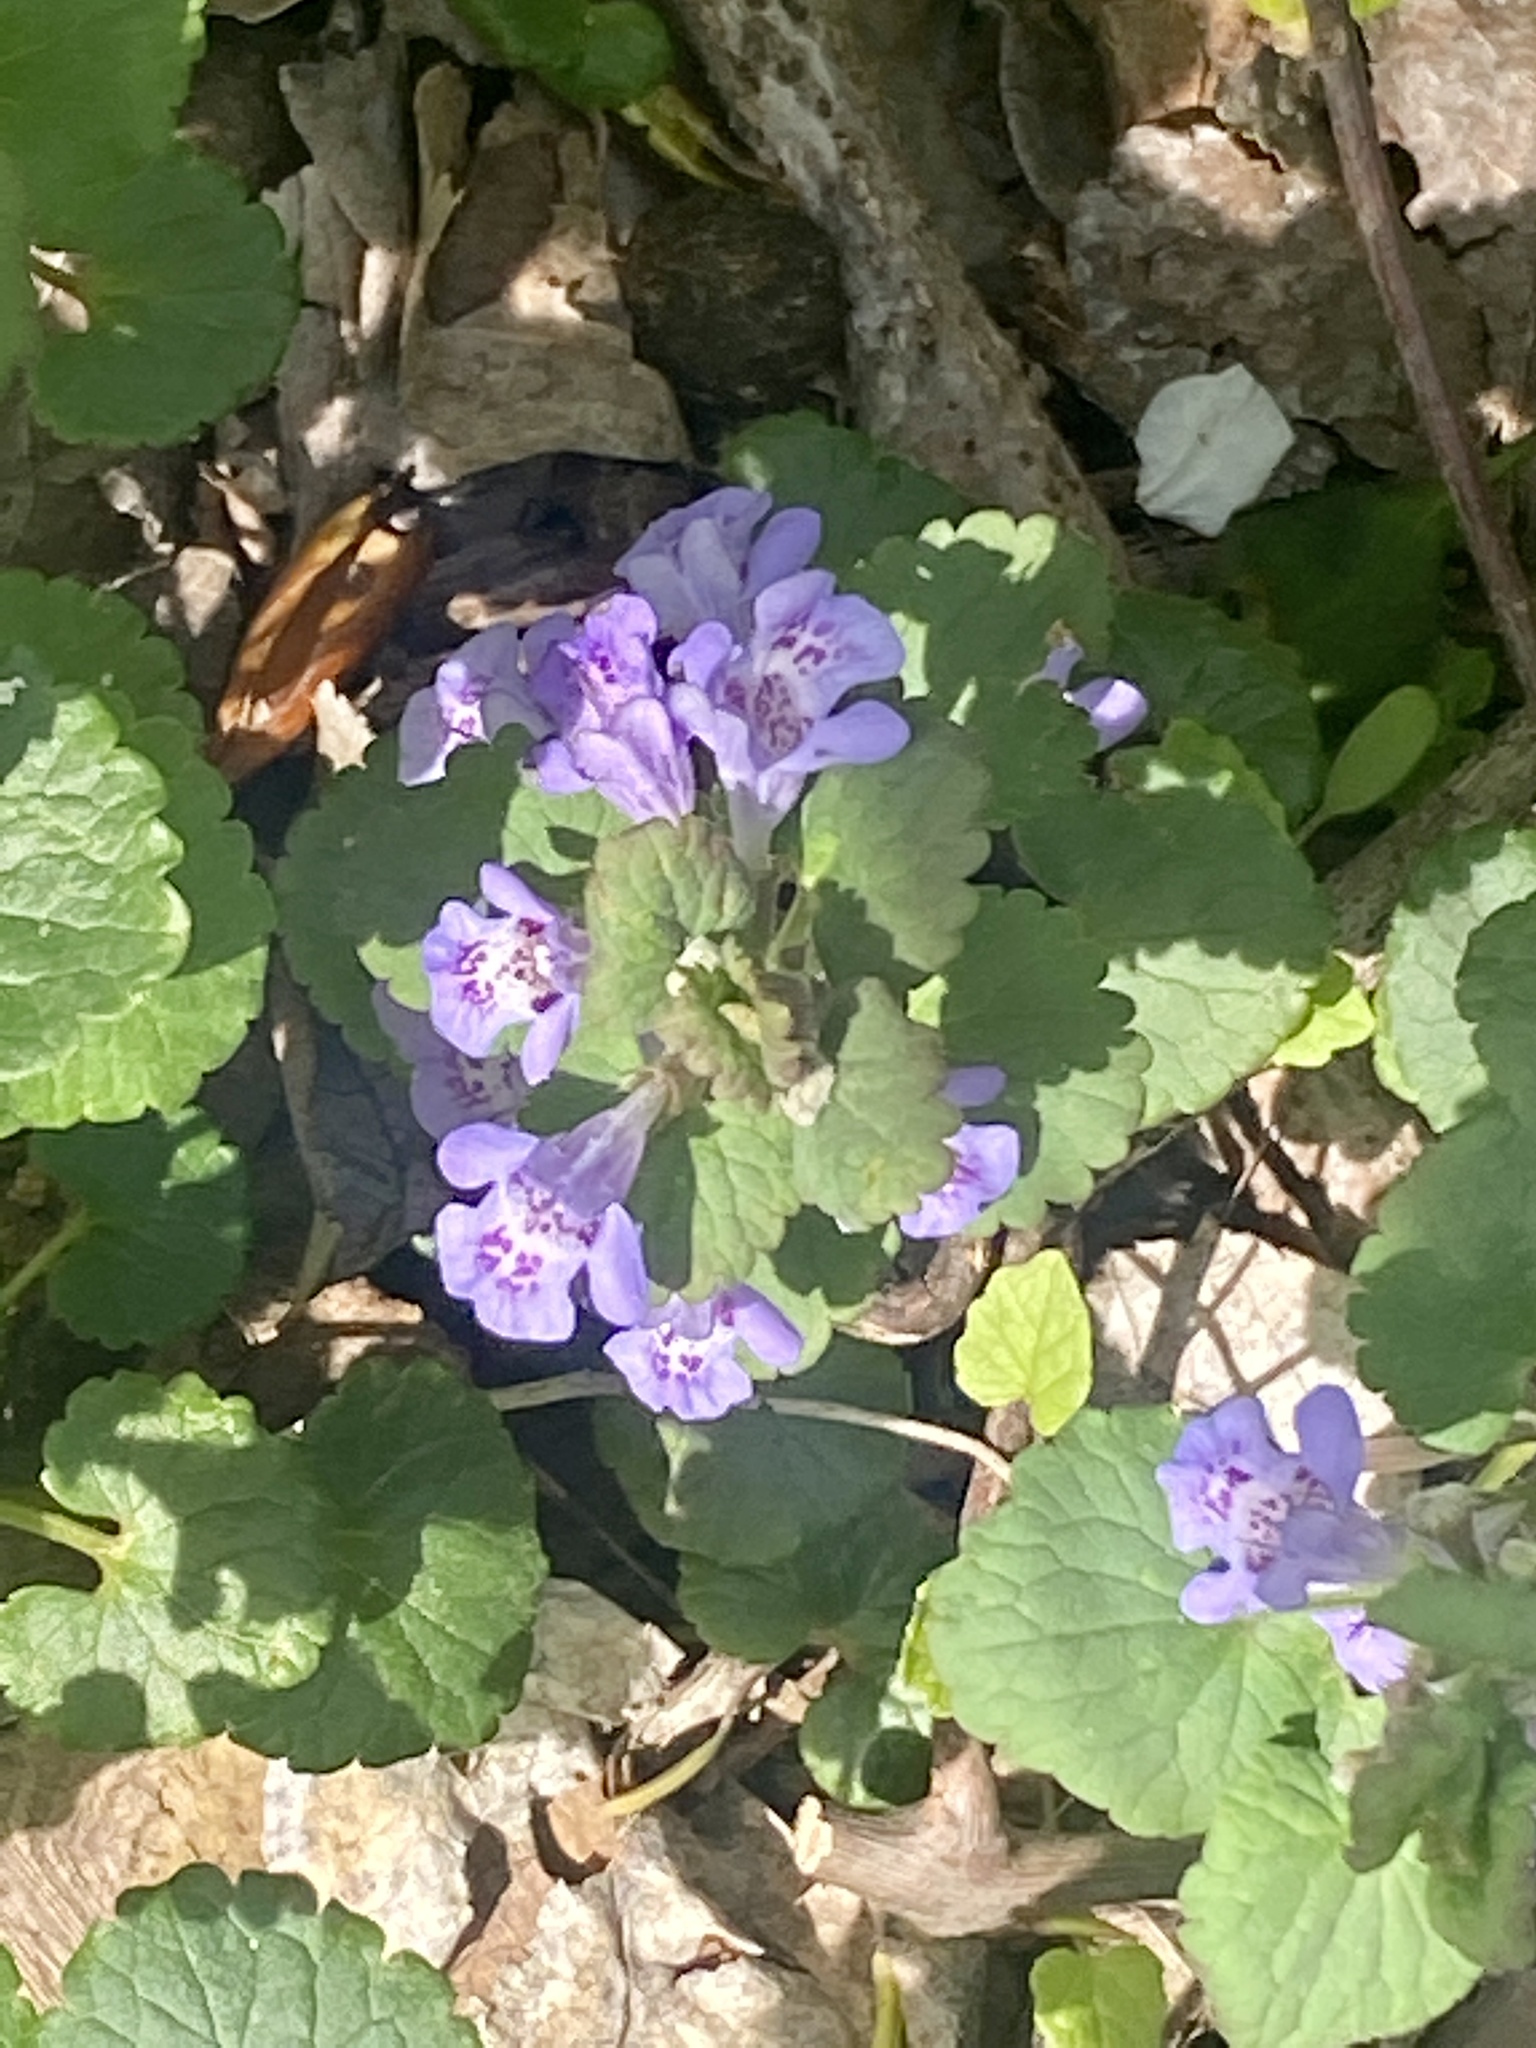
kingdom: Plantae
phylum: Tracheophyta
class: Magnoliopsida
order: Lamiales
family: Lamiaceae
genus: Glechoma
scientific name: Glechoma hederacea
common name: Ground ivy
